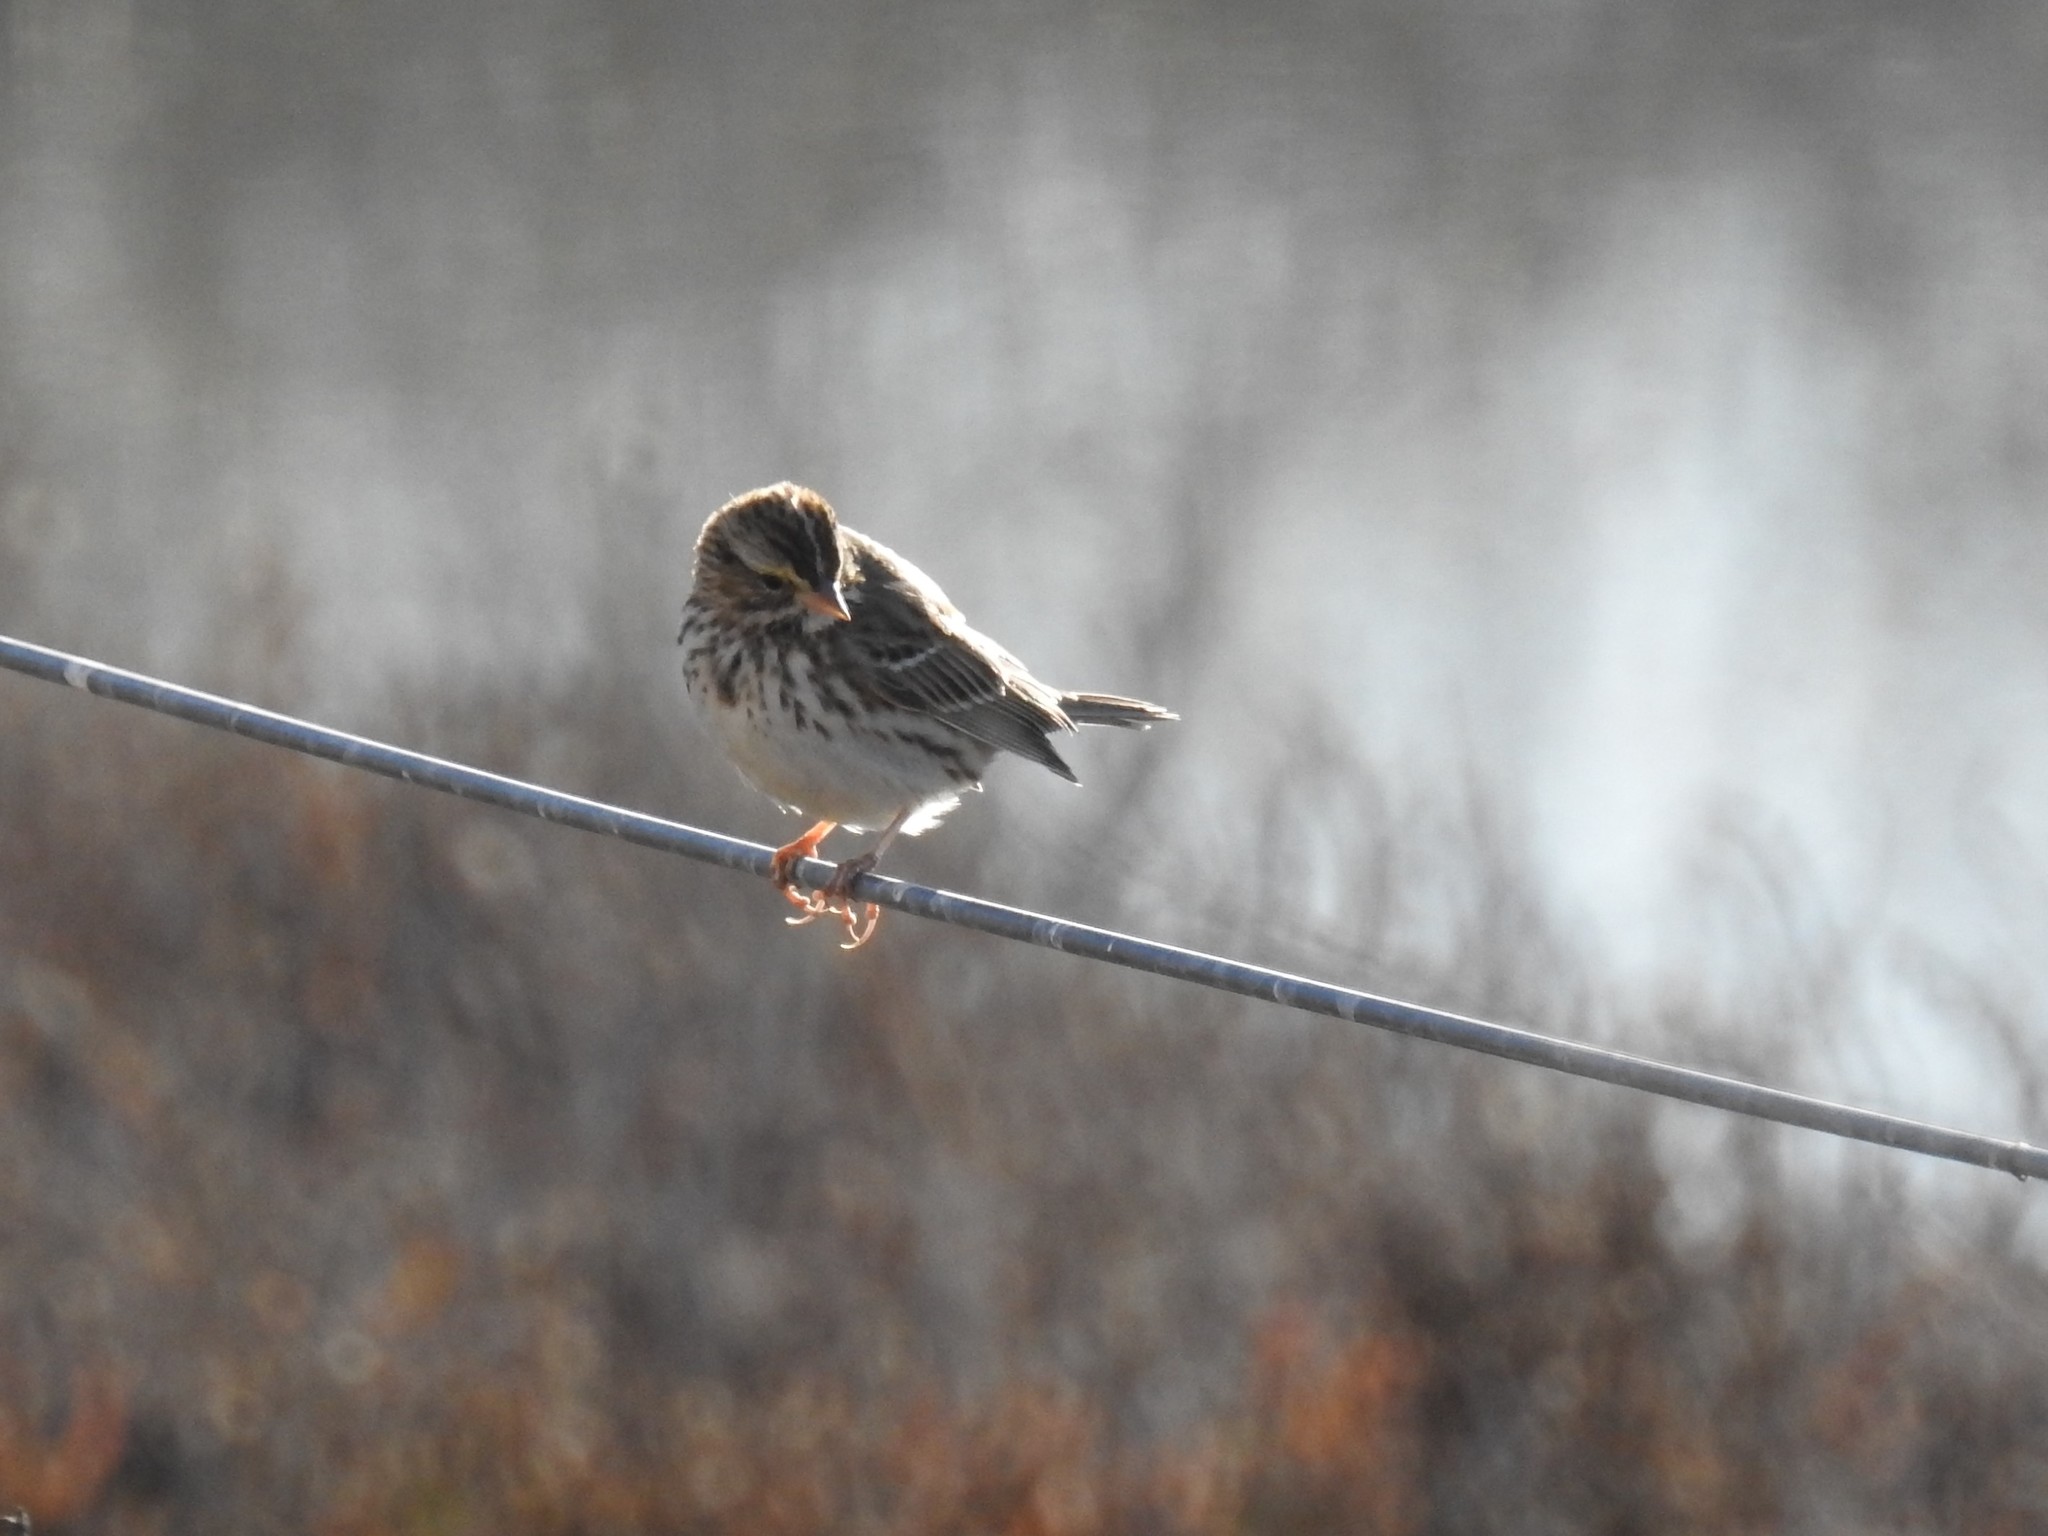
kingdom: Animalia
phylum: Chordata
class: Aves
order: Passeriformes
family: Passerellidae
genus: Passerculus
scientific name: Passerculus sandwichensis
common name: Savannah sparrow
